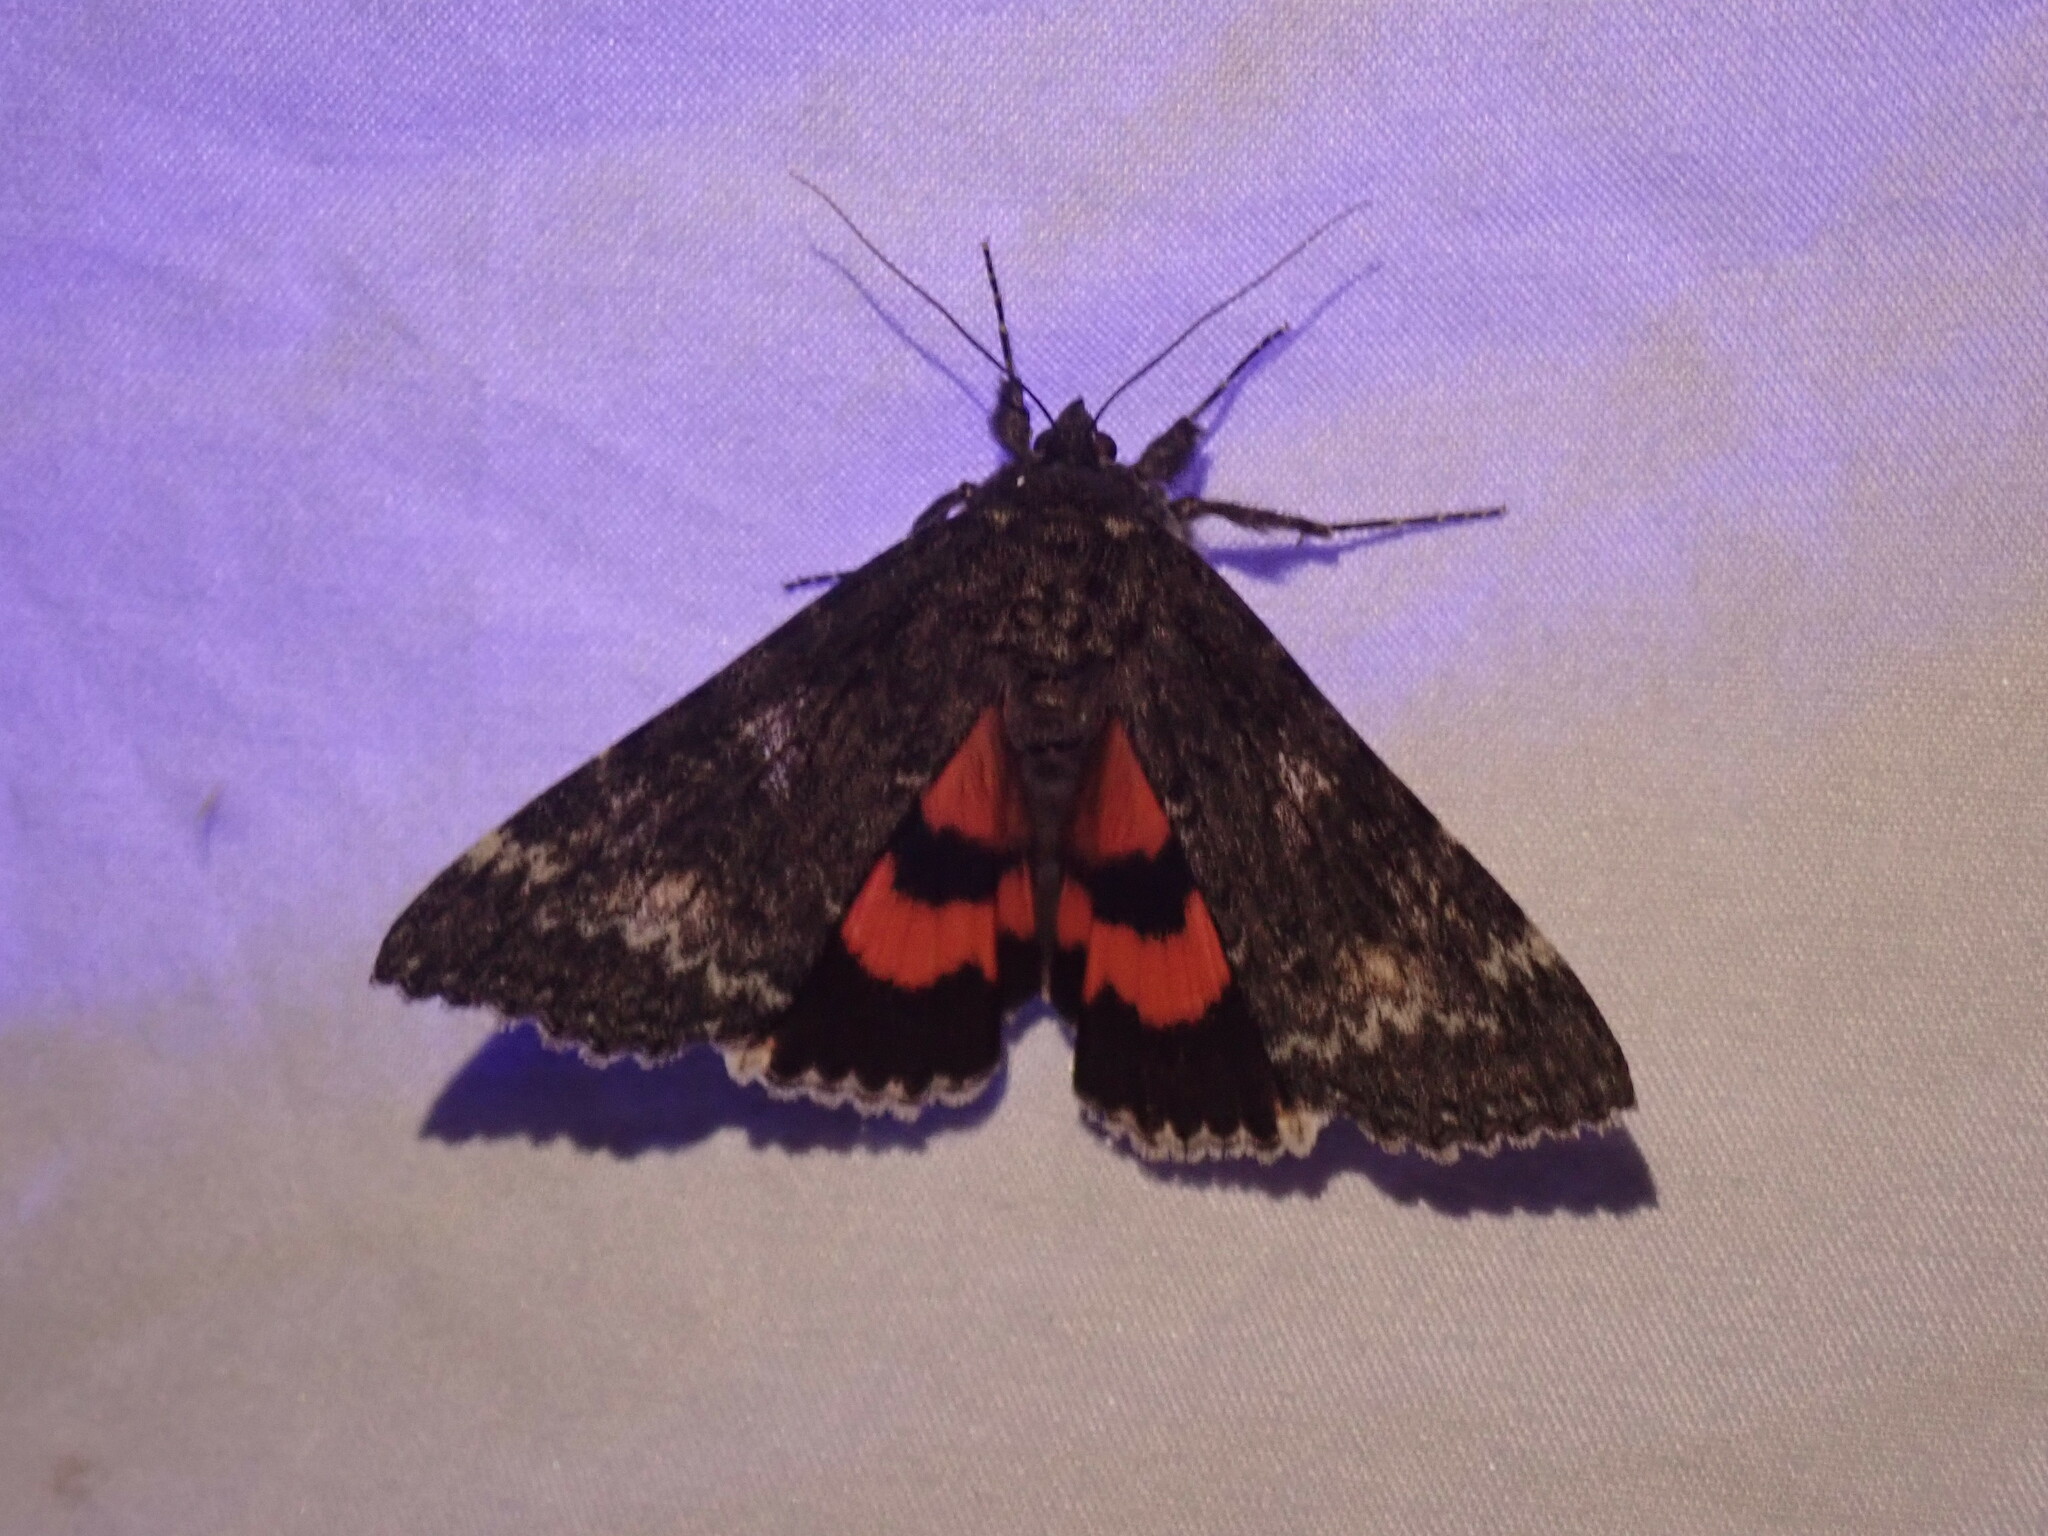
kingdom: Animalia
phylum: Arthropoda
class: Insecta
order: Lepidoptera
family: Erebidae
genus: Catocala
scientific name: Catocala briseis
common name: Briseis underwing
